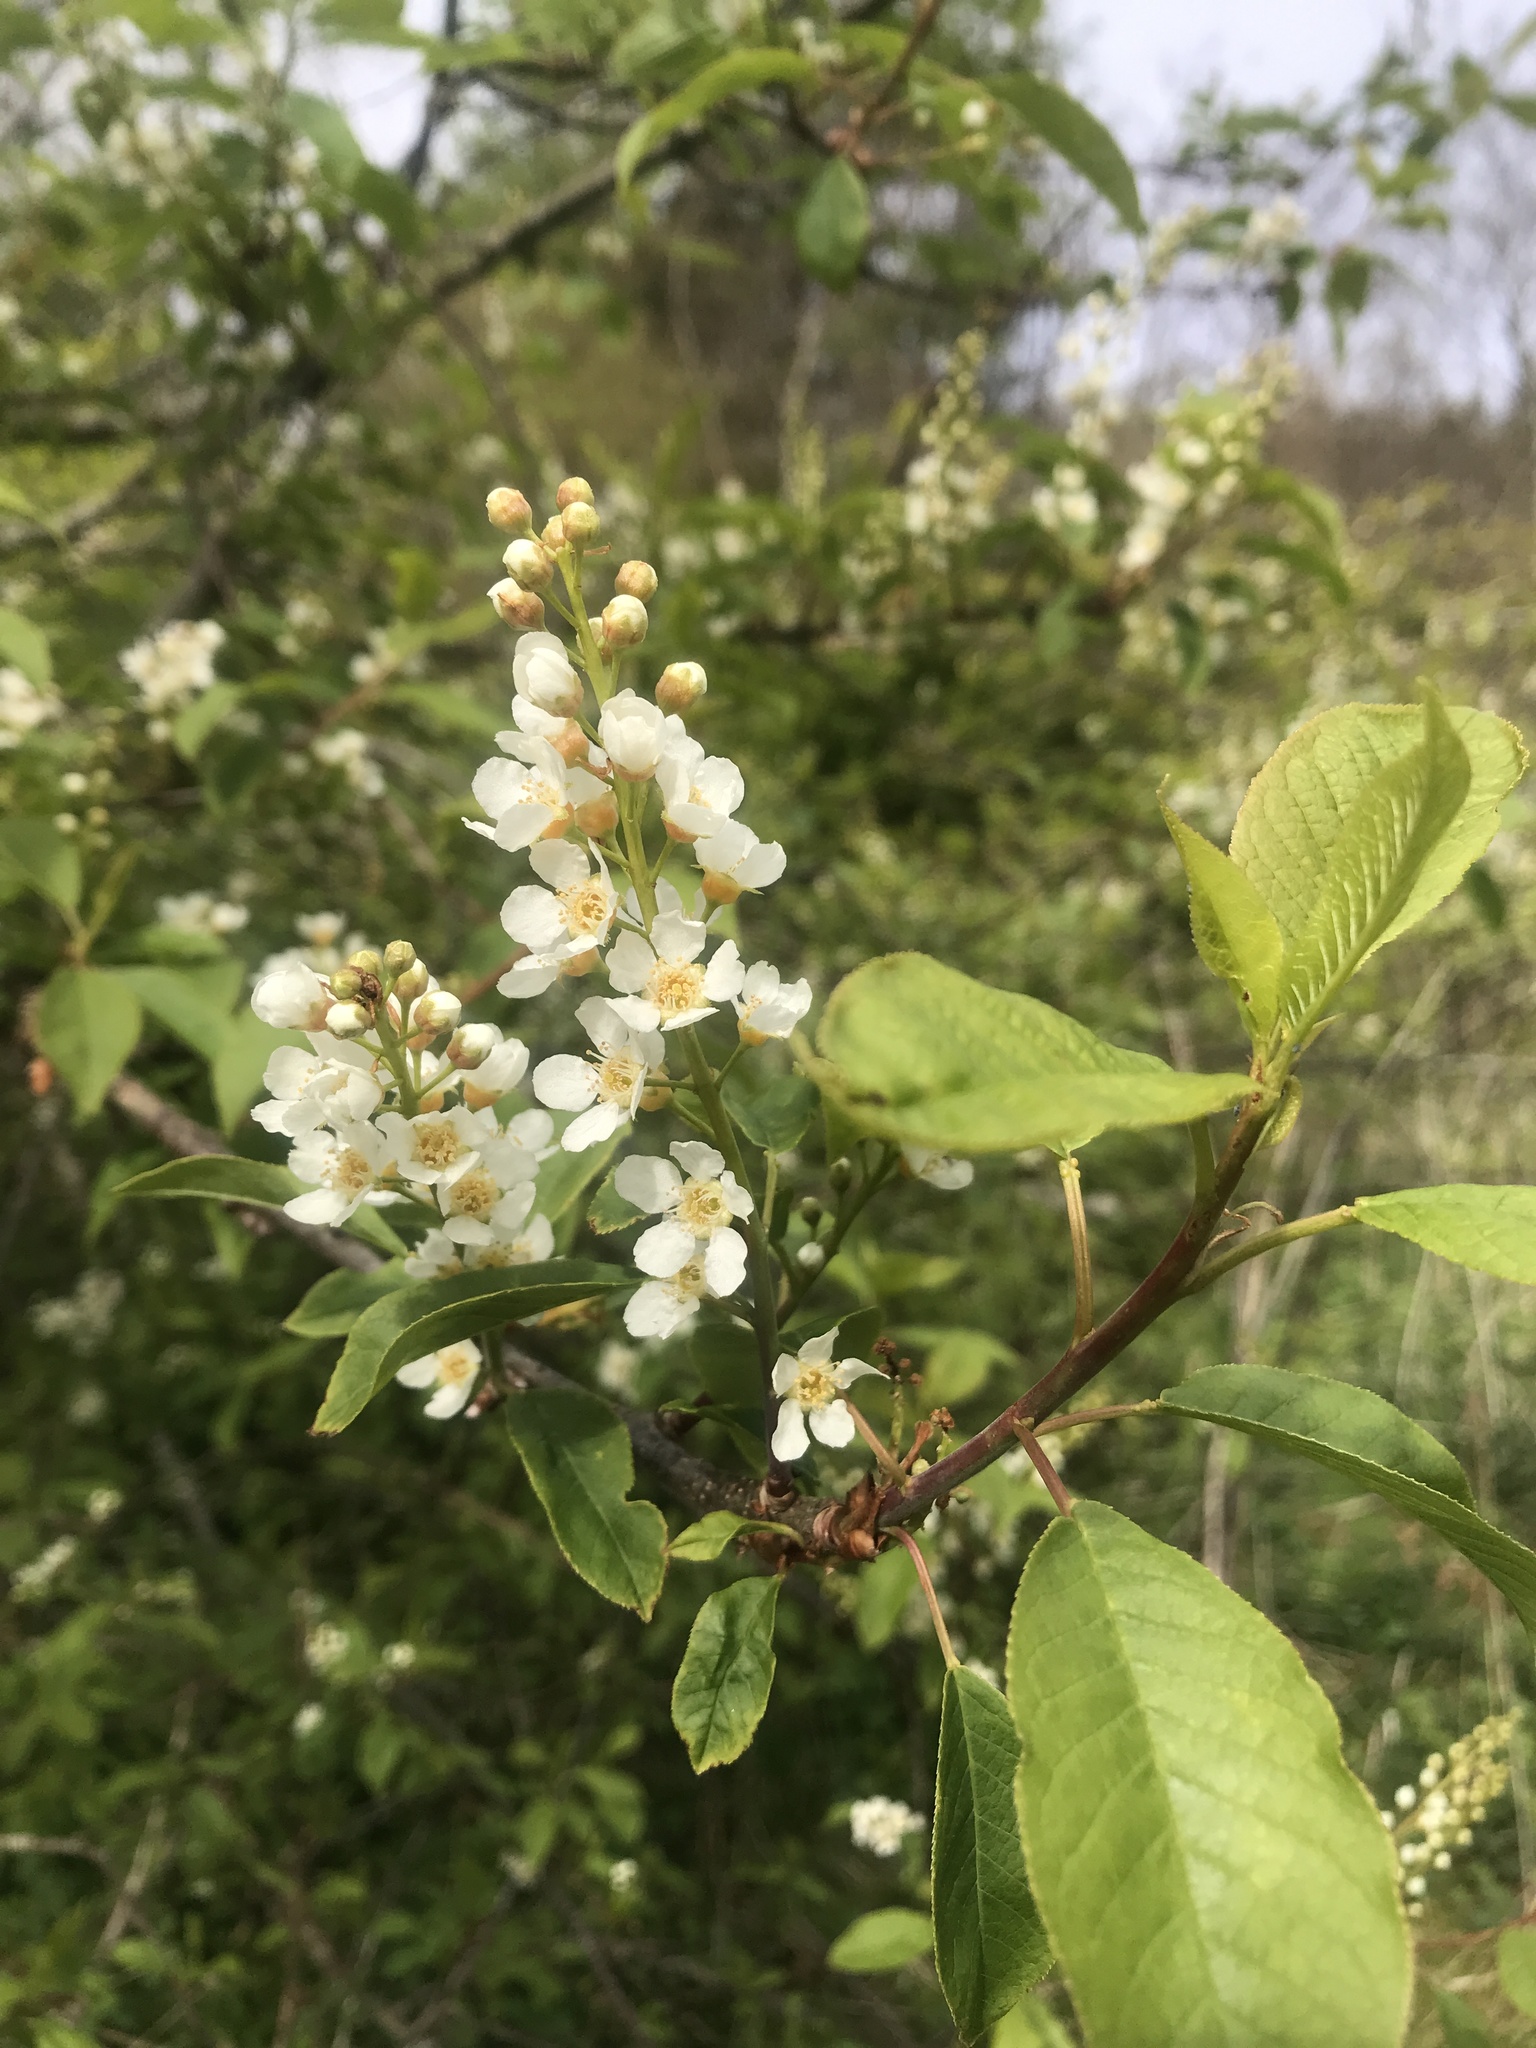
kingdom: Plantae
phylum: Tracheophyta
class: Magnoliopsida
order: Rosales
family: Rosaceae
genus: Prunus
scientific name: Prunus padus
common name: Bird cherry
